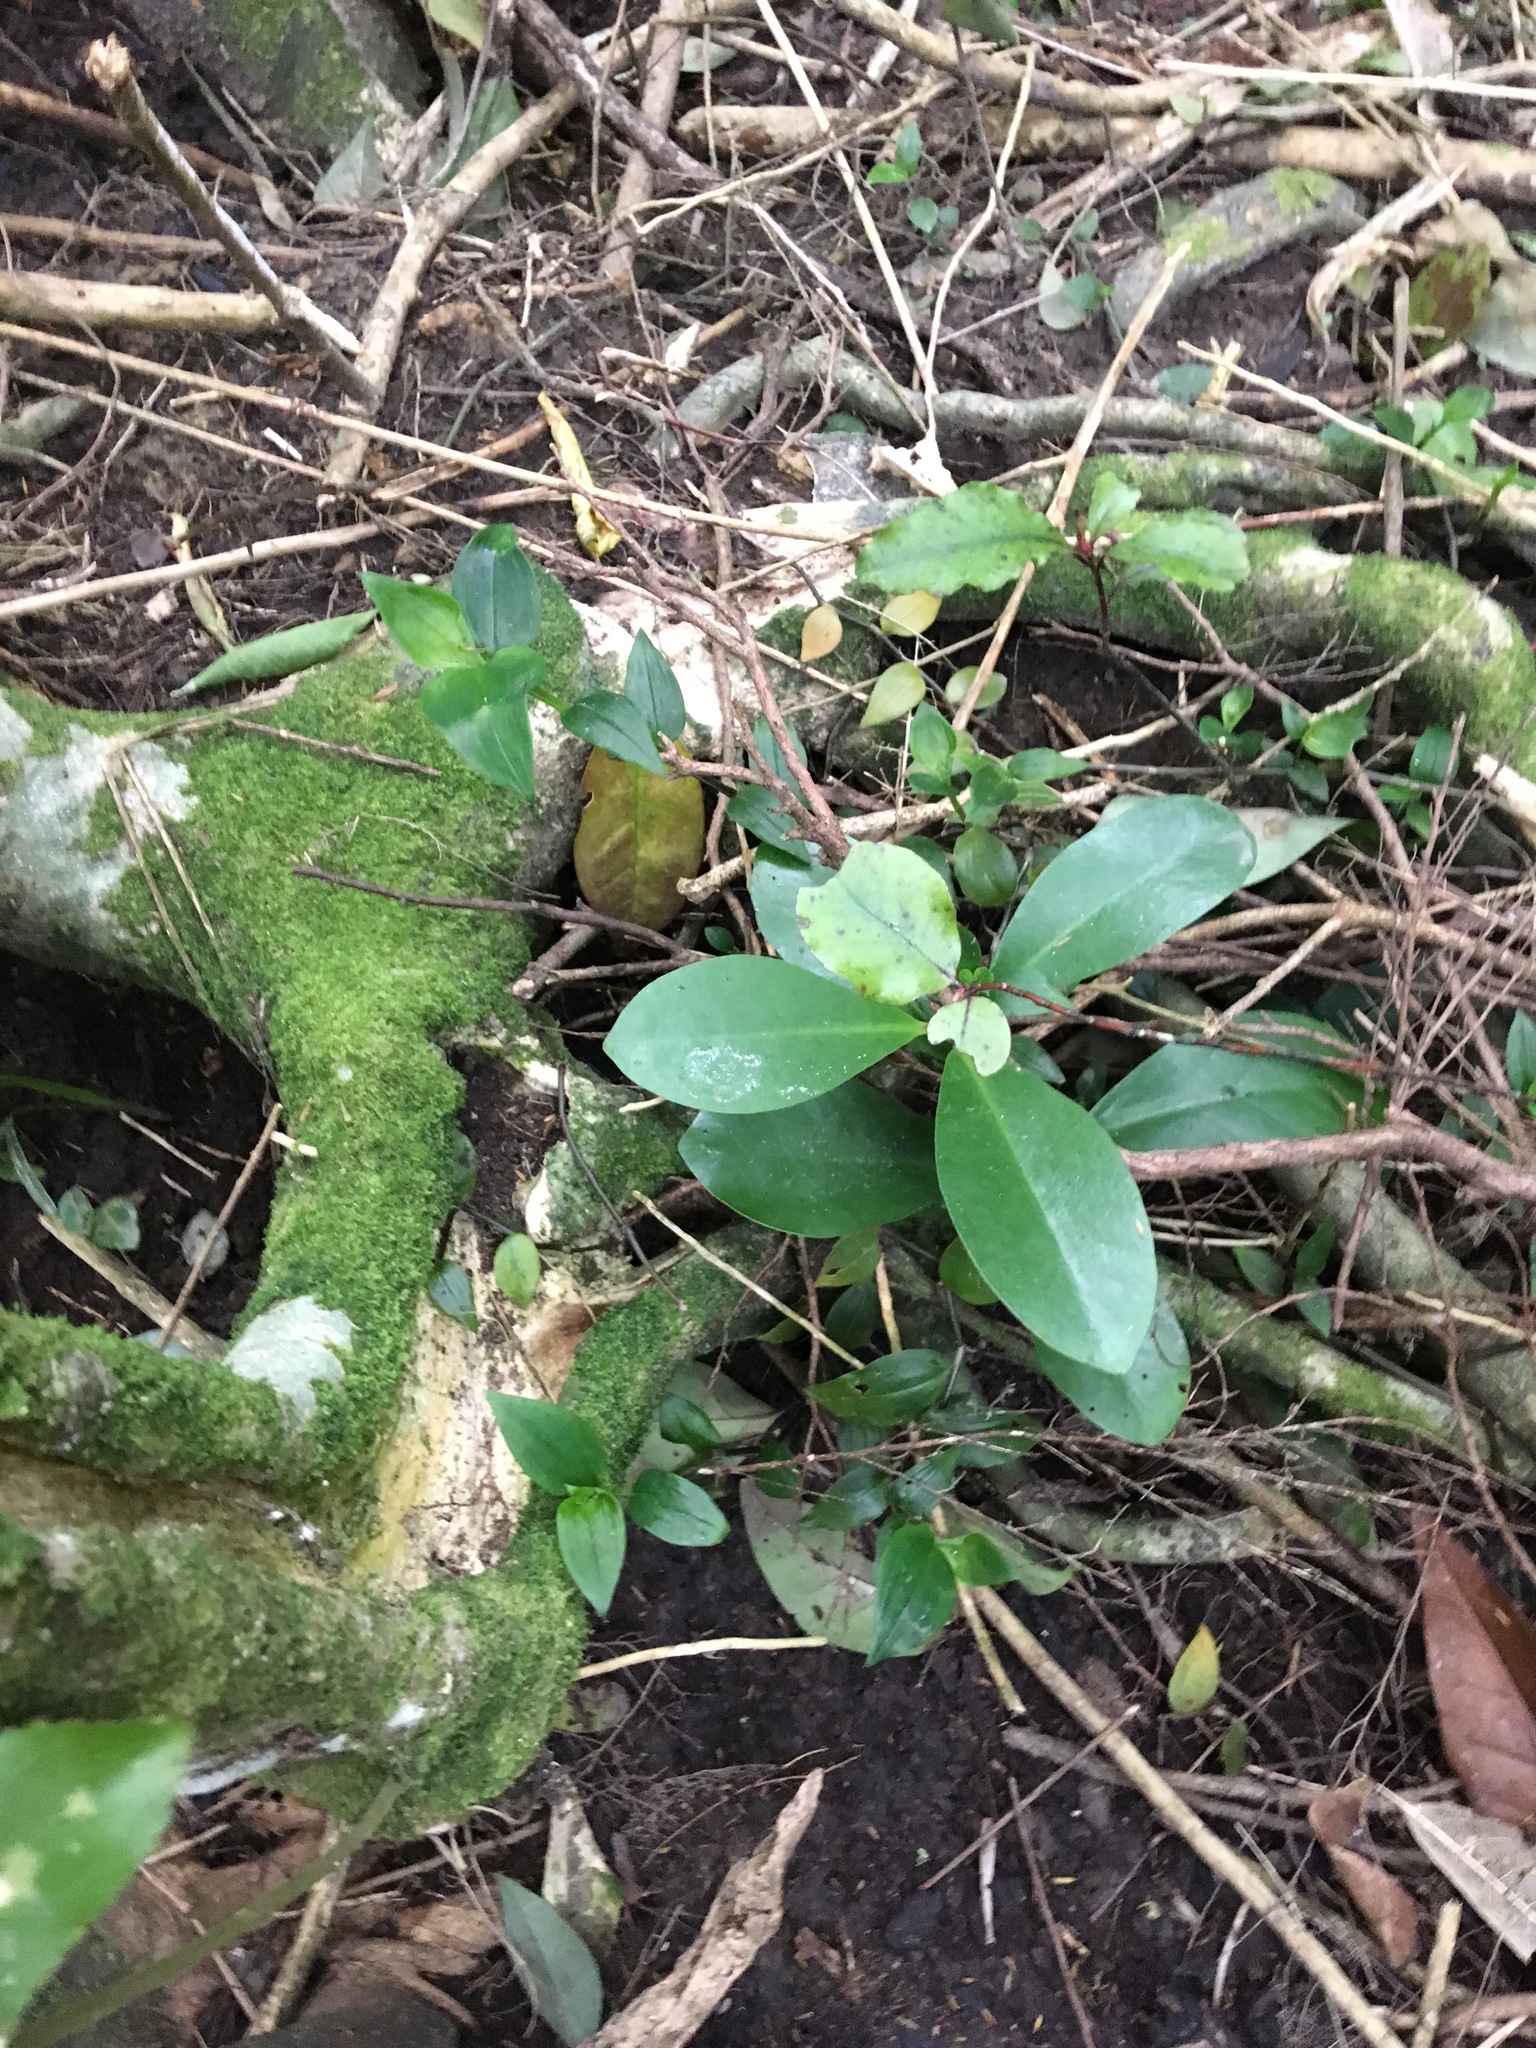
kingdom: Plantae
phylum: Tracheophyta
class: Magnoliopsida
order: Cucurbitales
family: Corynocarpaceae
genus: Corynocarpus
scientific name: Corynocarpus laevigatus
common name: New zealand laurel
